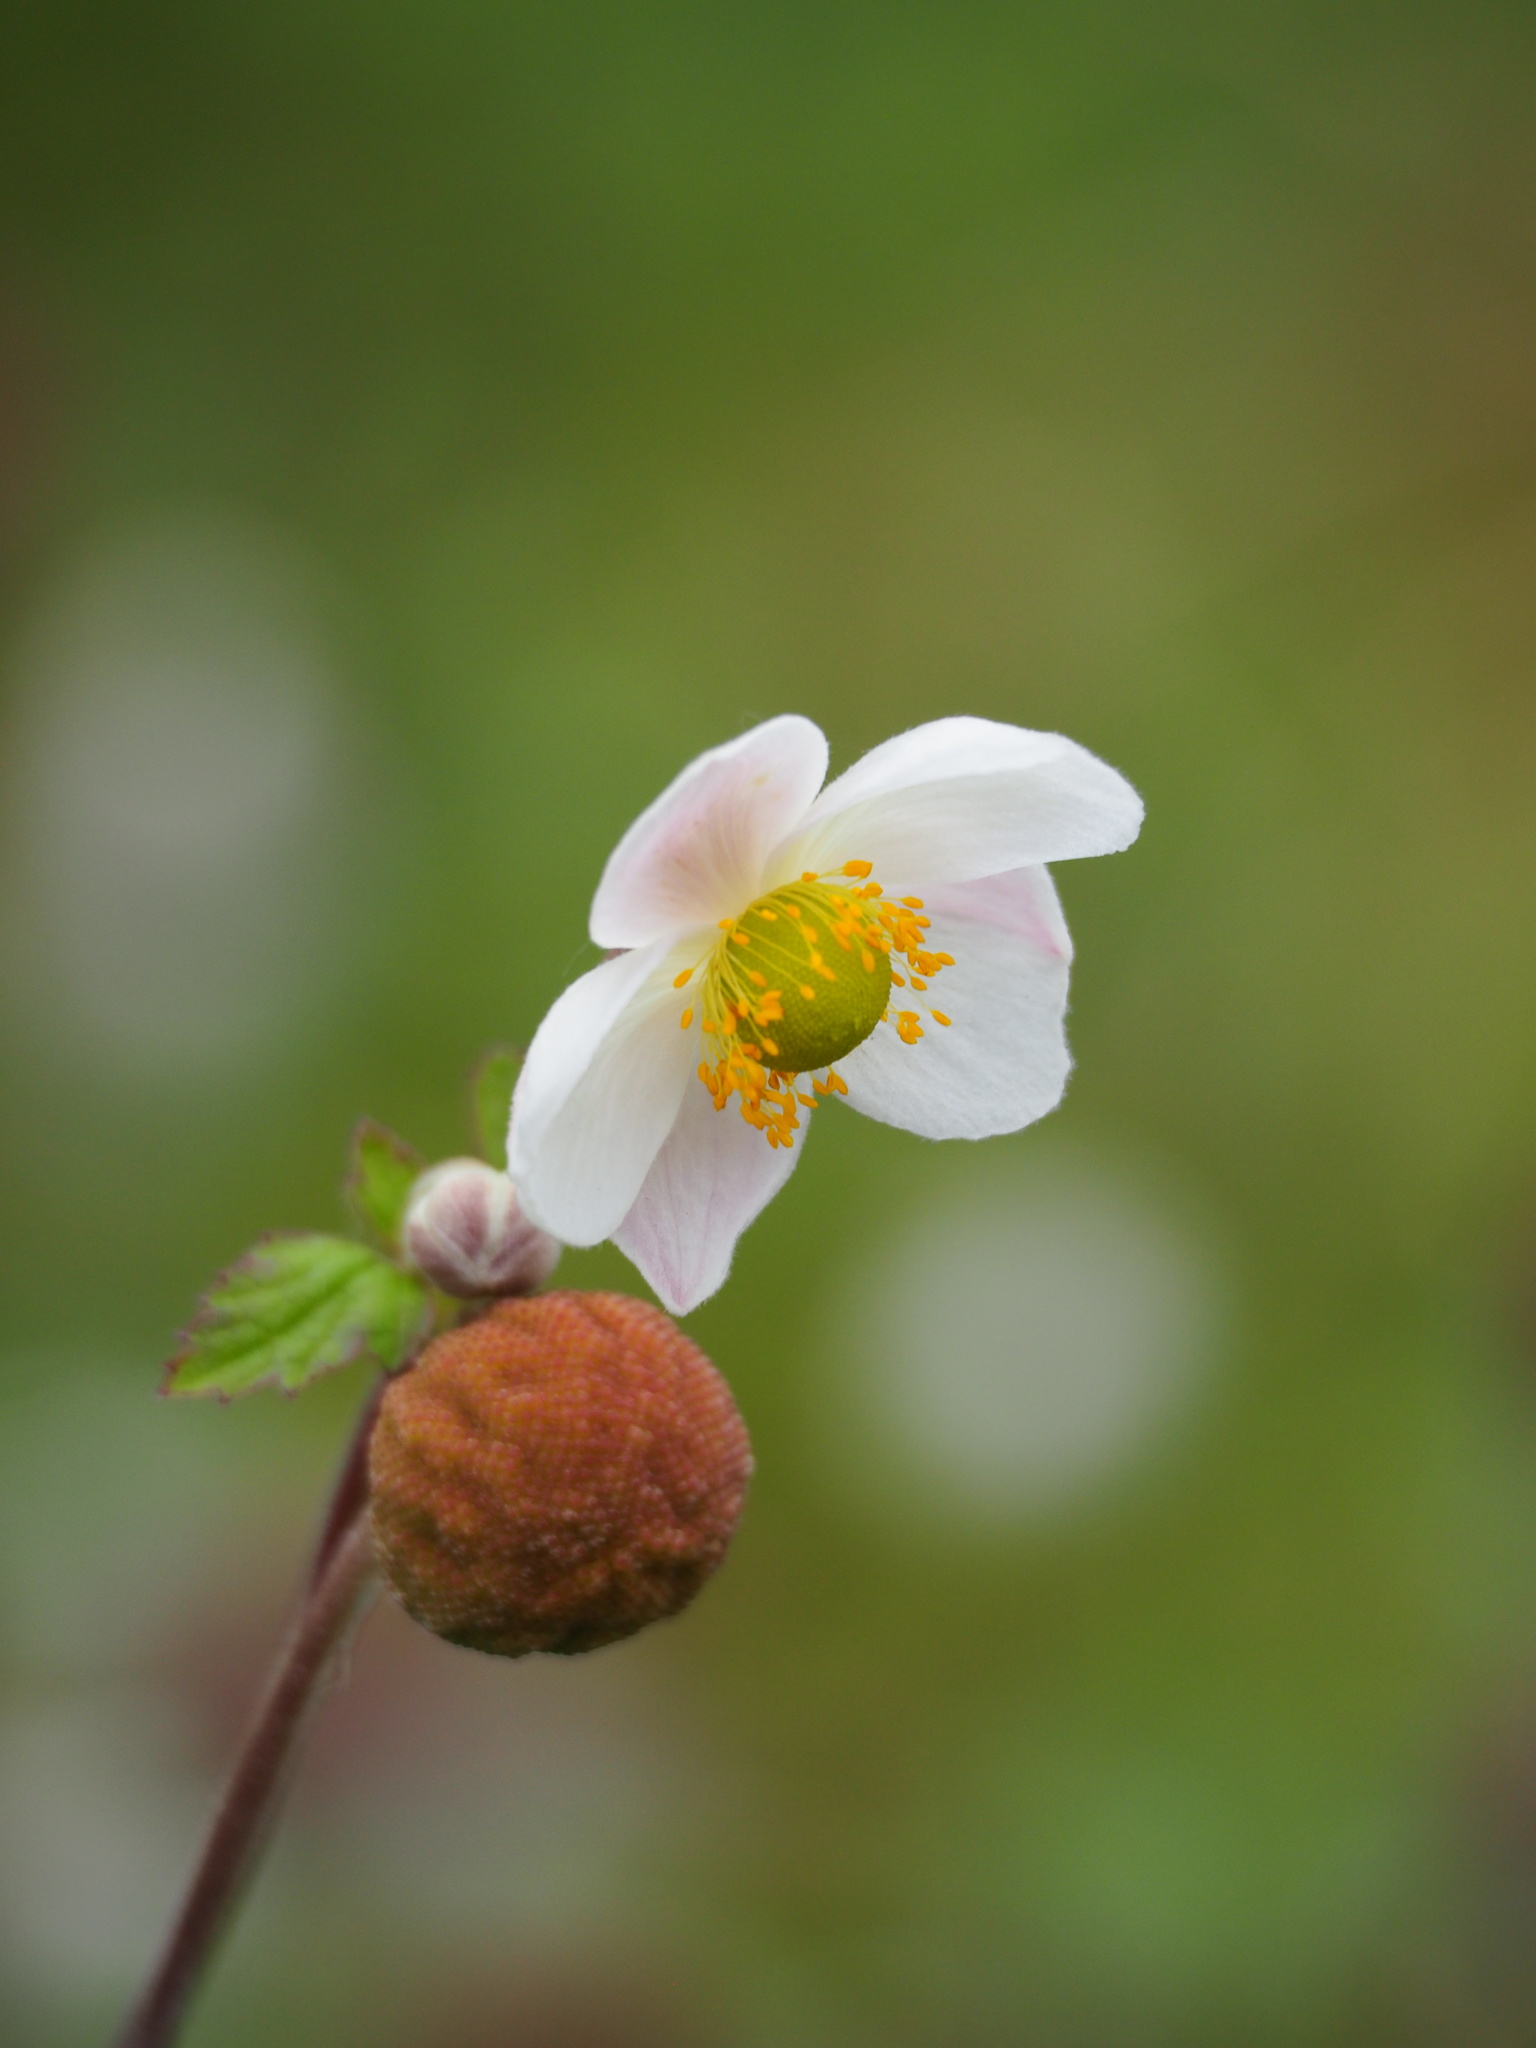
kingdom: Plantae
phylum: Tracheophyta
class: Magnoliopsida
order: Ranunculales
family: Ranunculaceae
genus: Eriocapitella
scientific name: Eriocapitella vitifolia
